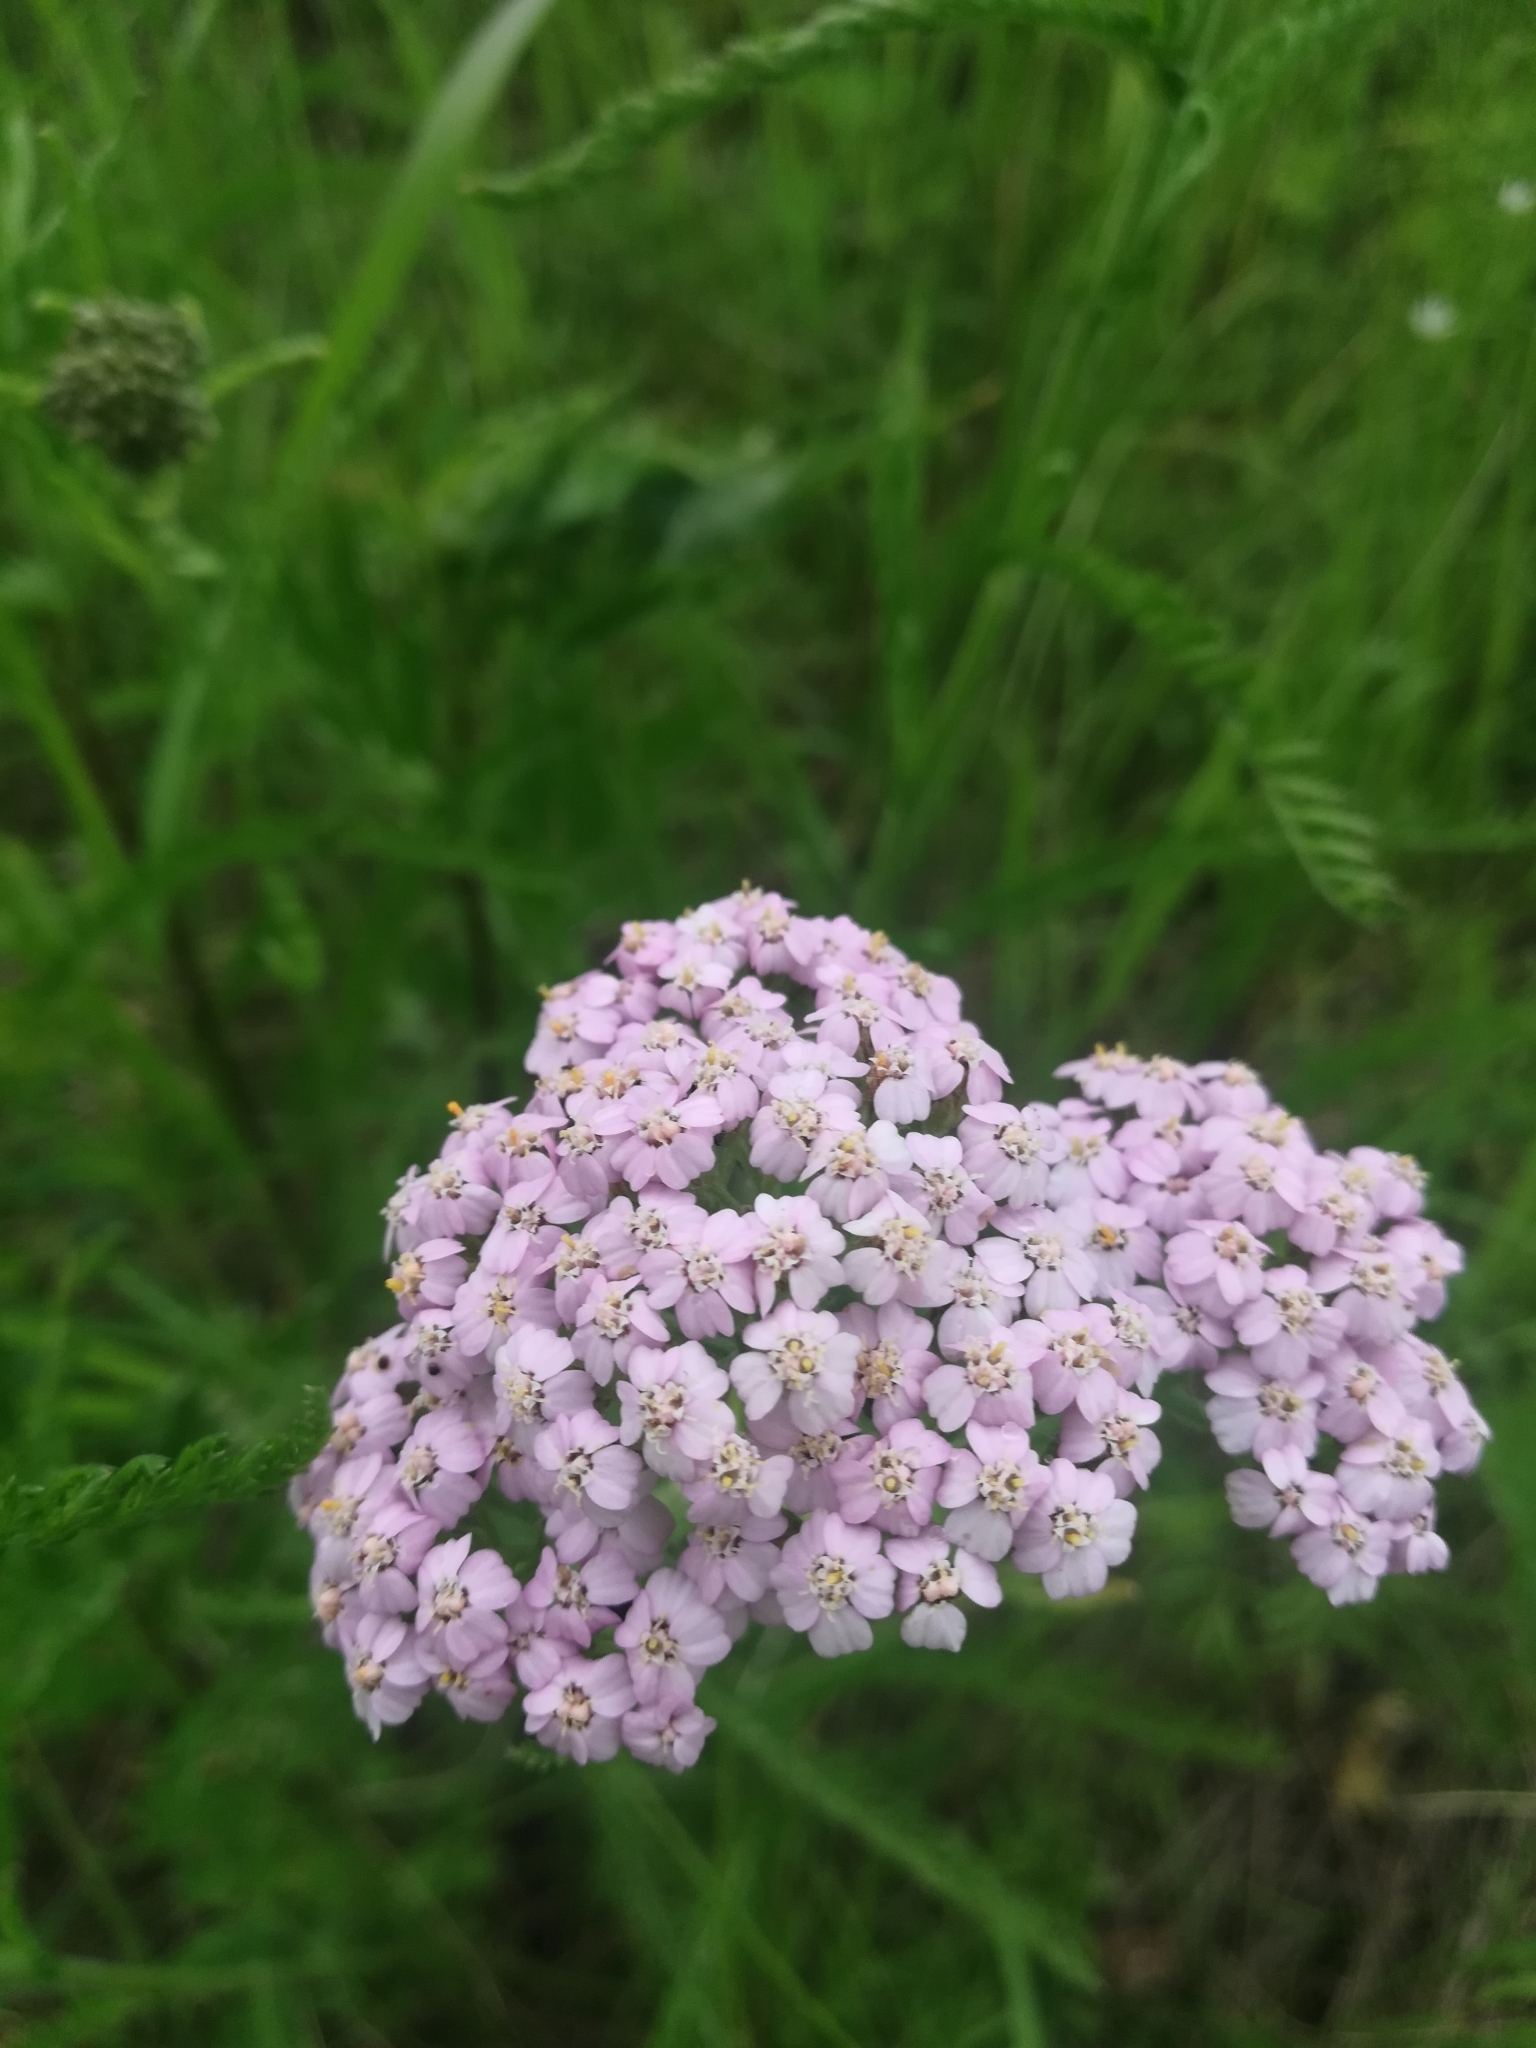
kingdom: Plantae
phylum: Tracheophyta
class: Magnoliopsida
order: Asterales
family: Asteraceae
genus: Achillea
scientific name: Achillea asiatica
